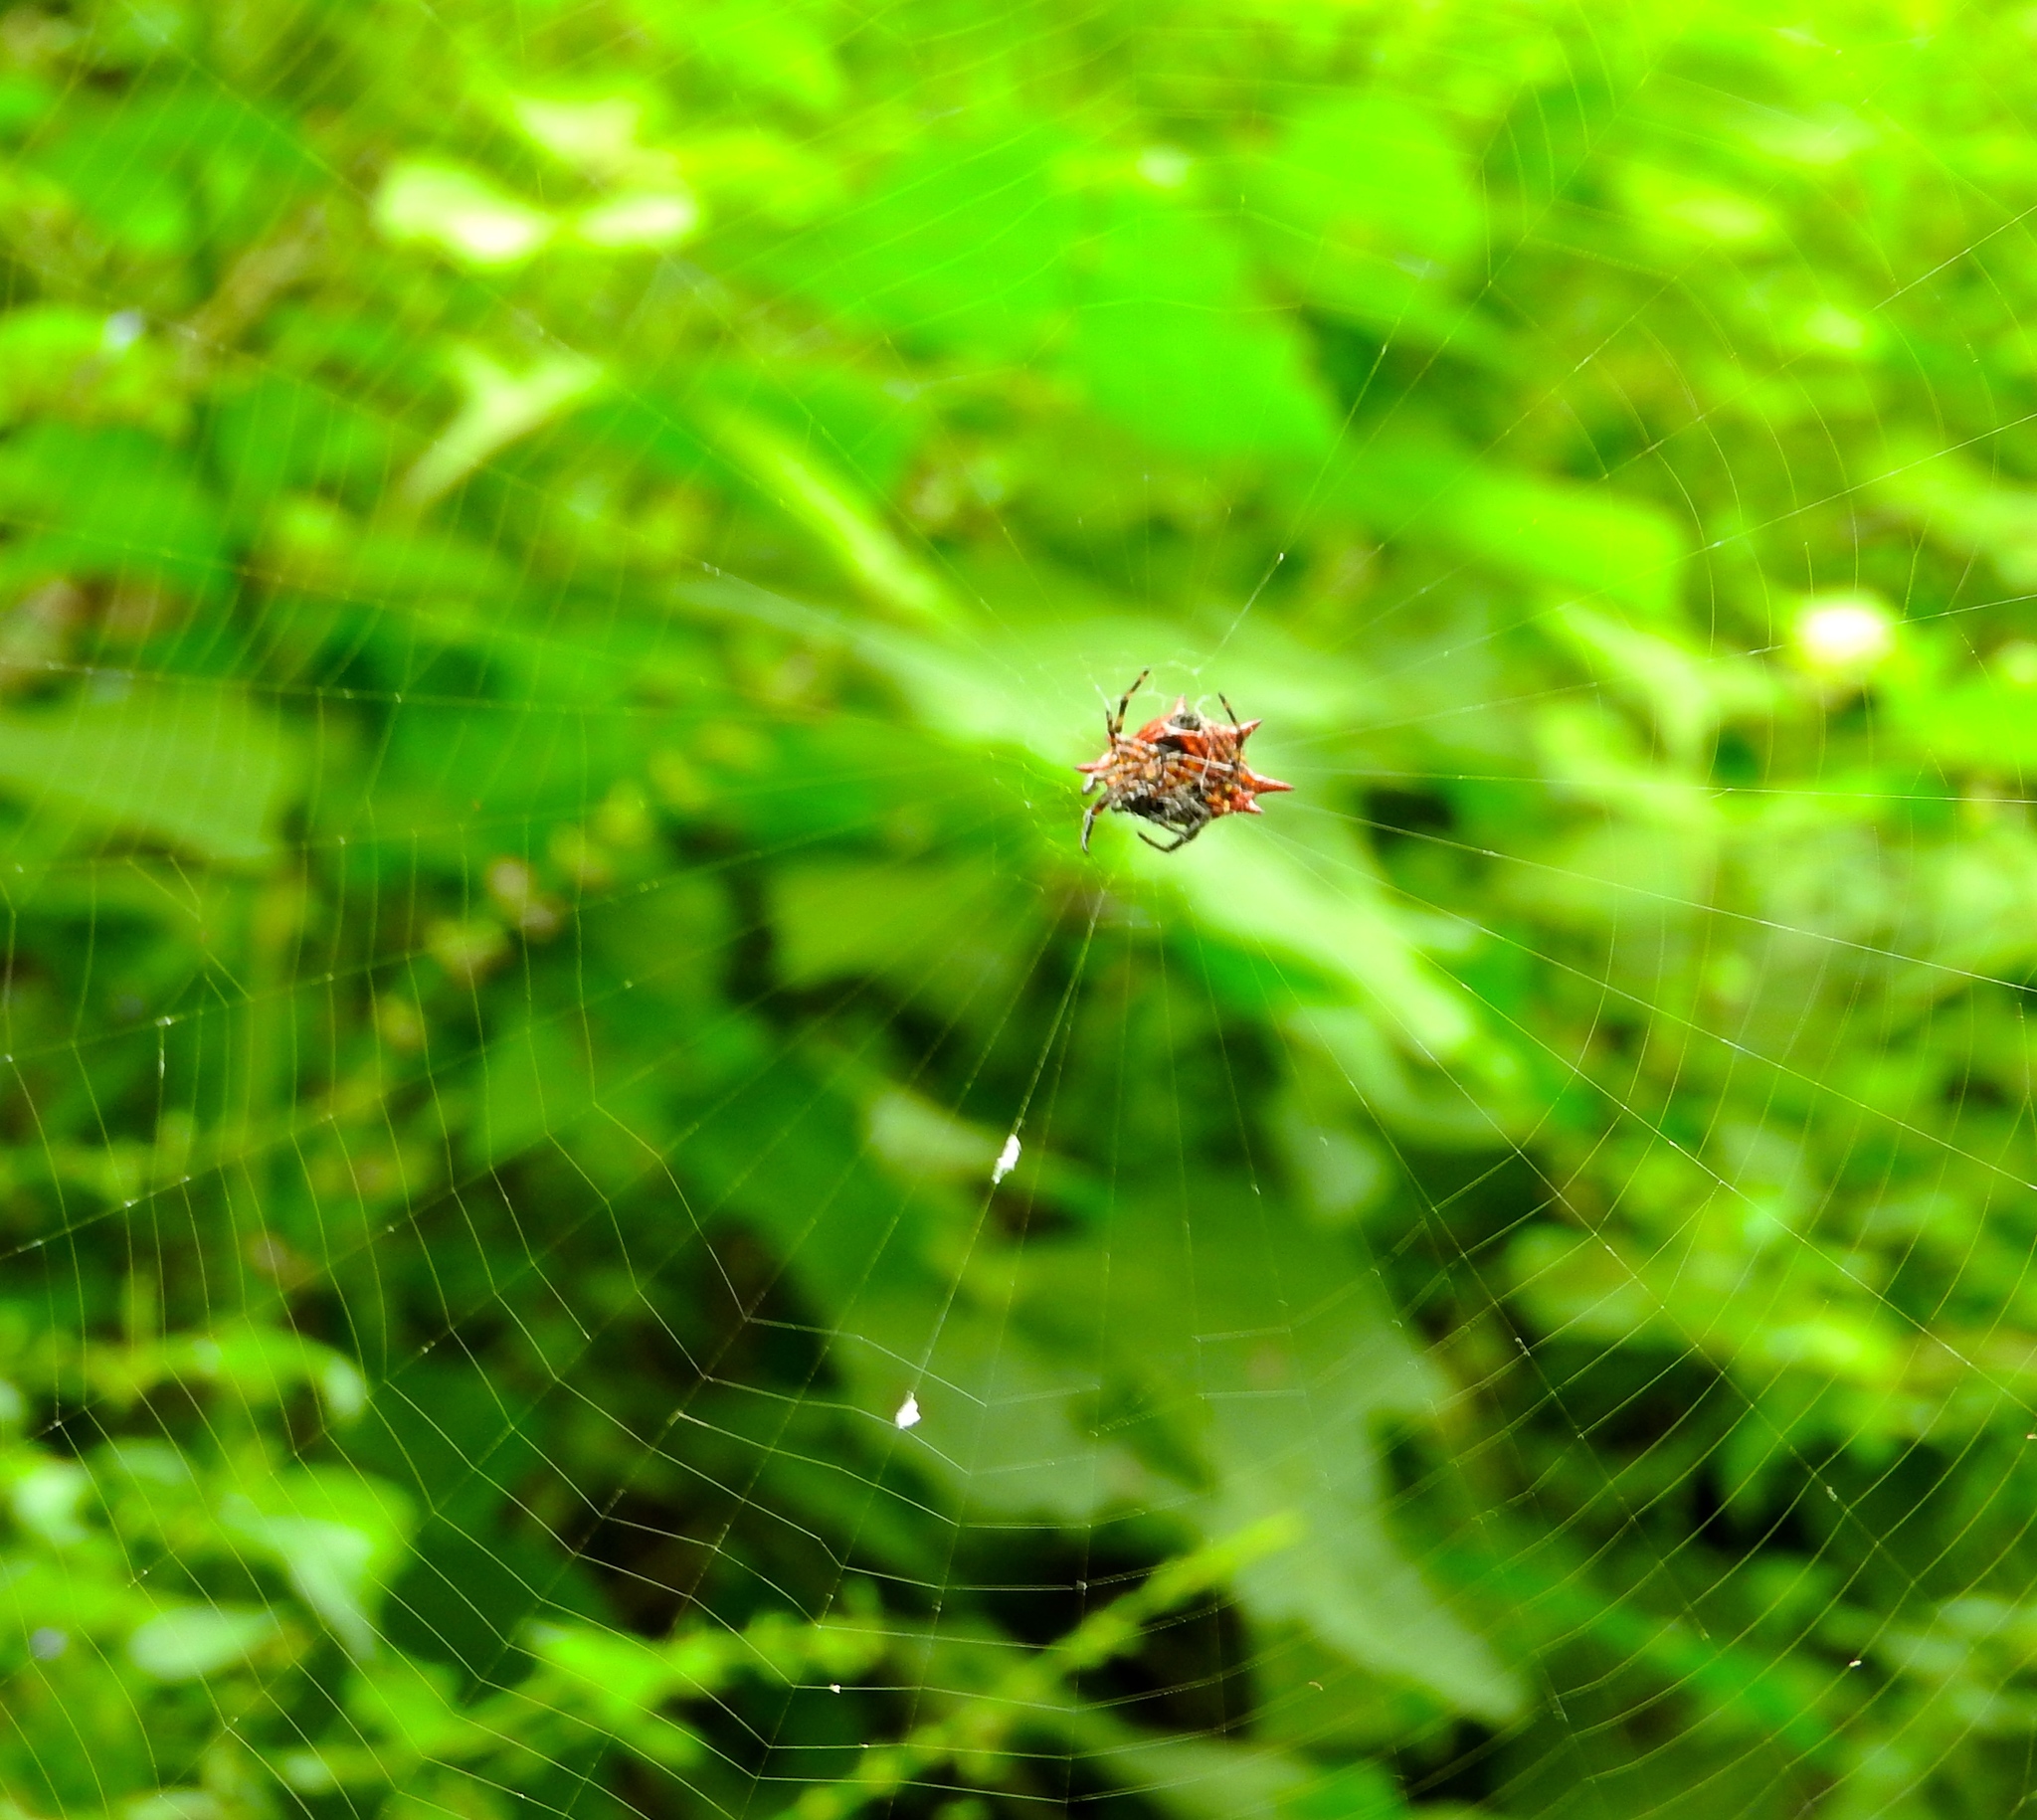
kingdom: Animalia
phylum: Arthropoda
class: Arachnida
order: Araneae
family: Araneidae
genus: Gasteracantha
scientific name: Gasteracantha cancriformis
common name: Orb weavers
